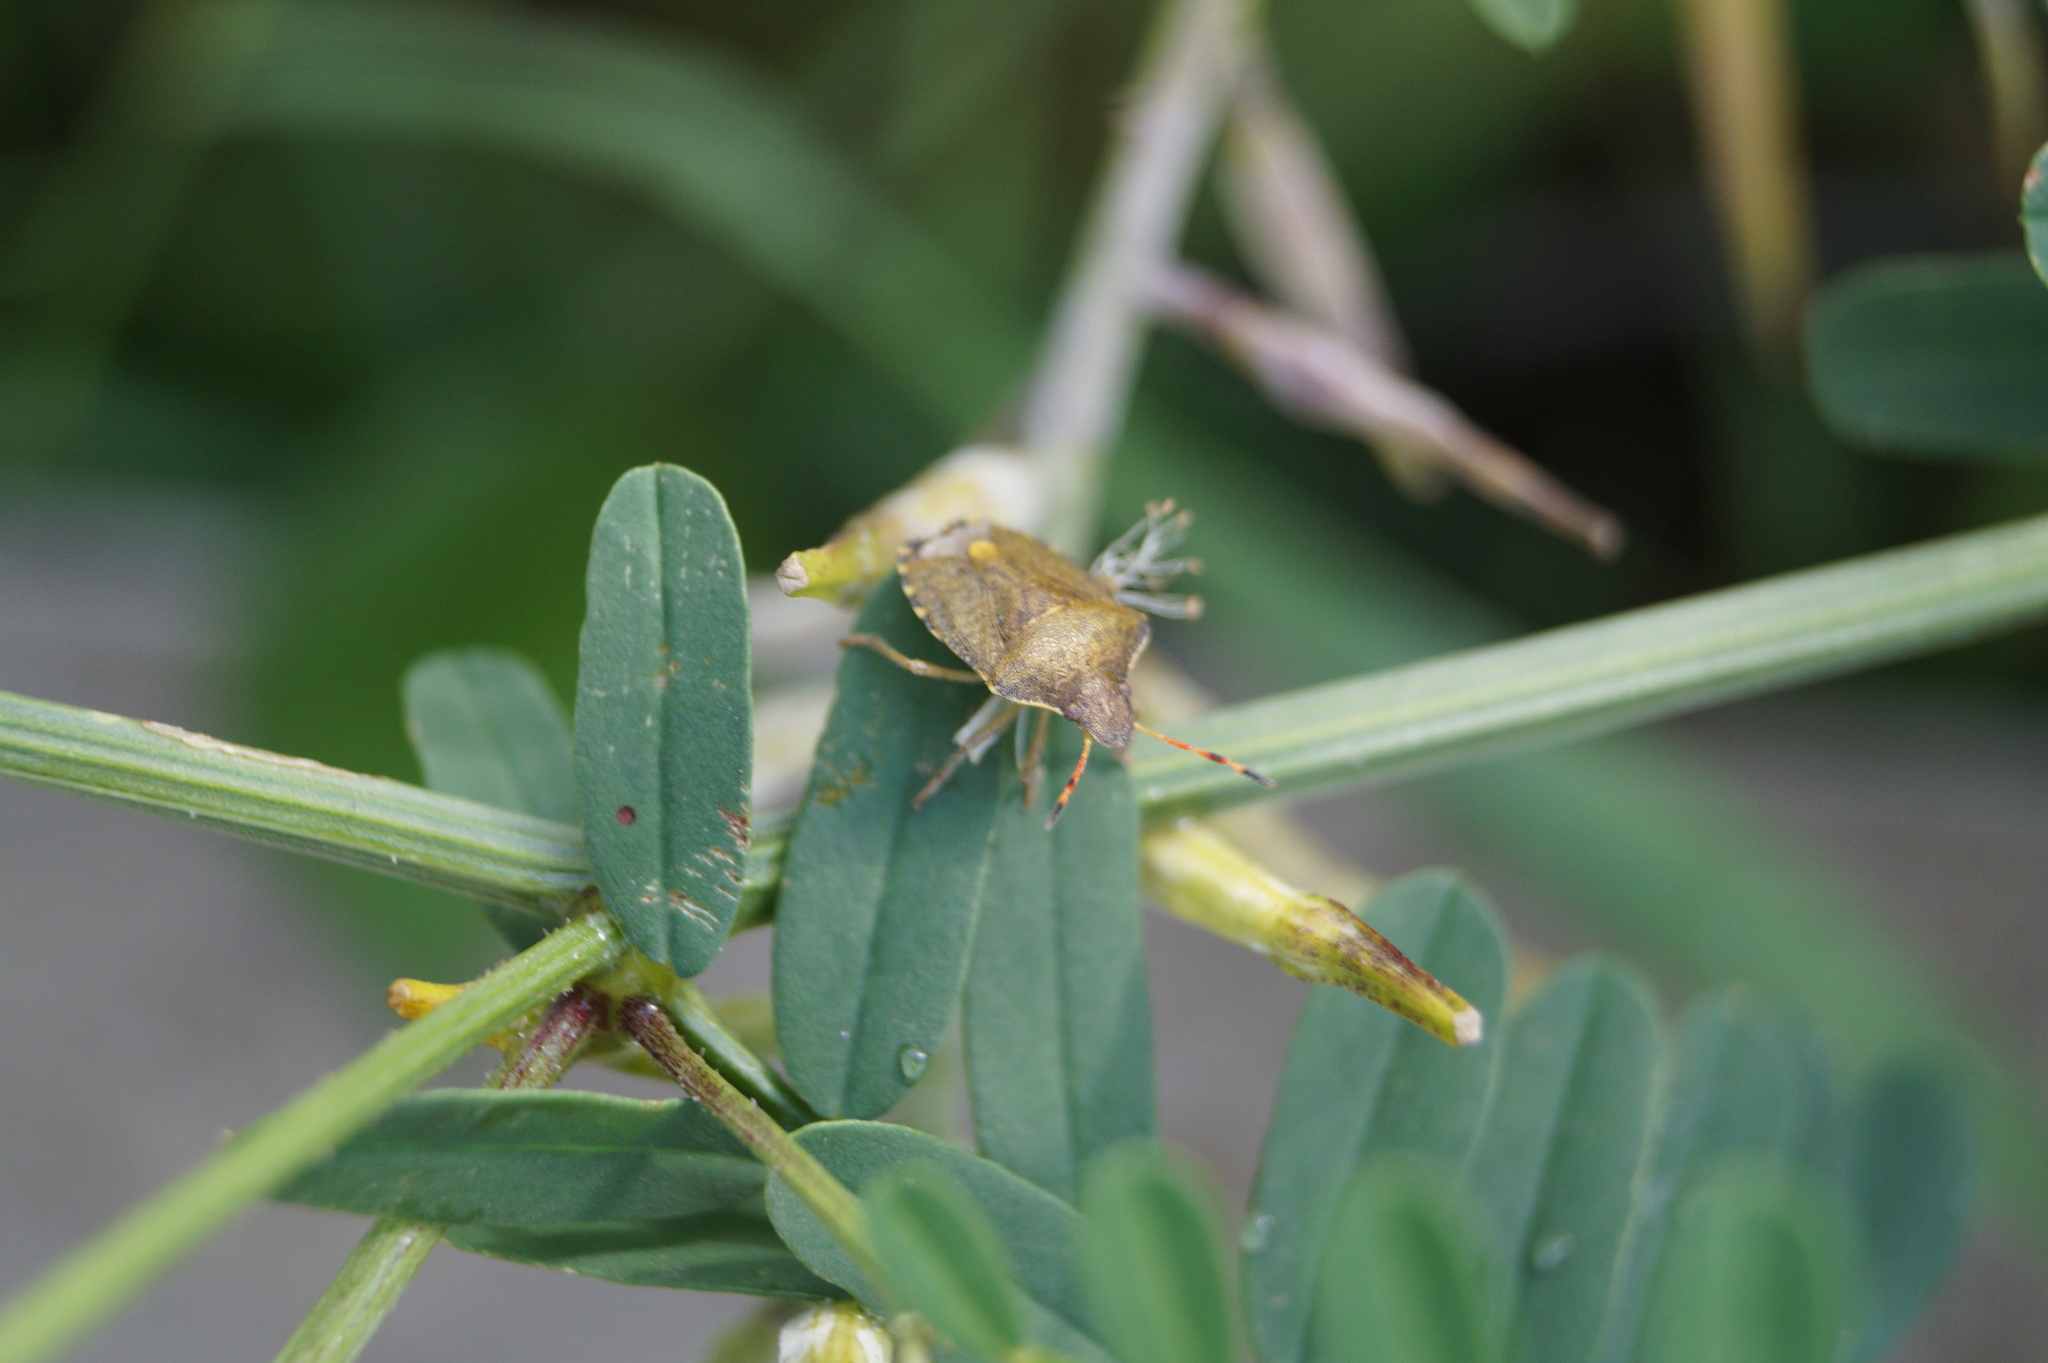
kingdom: Animalia
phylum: Arthropoda
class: Insecta
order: Hemiptera
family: Pentatomidae
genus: Holcostethus
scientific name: Holcostethus strictus
